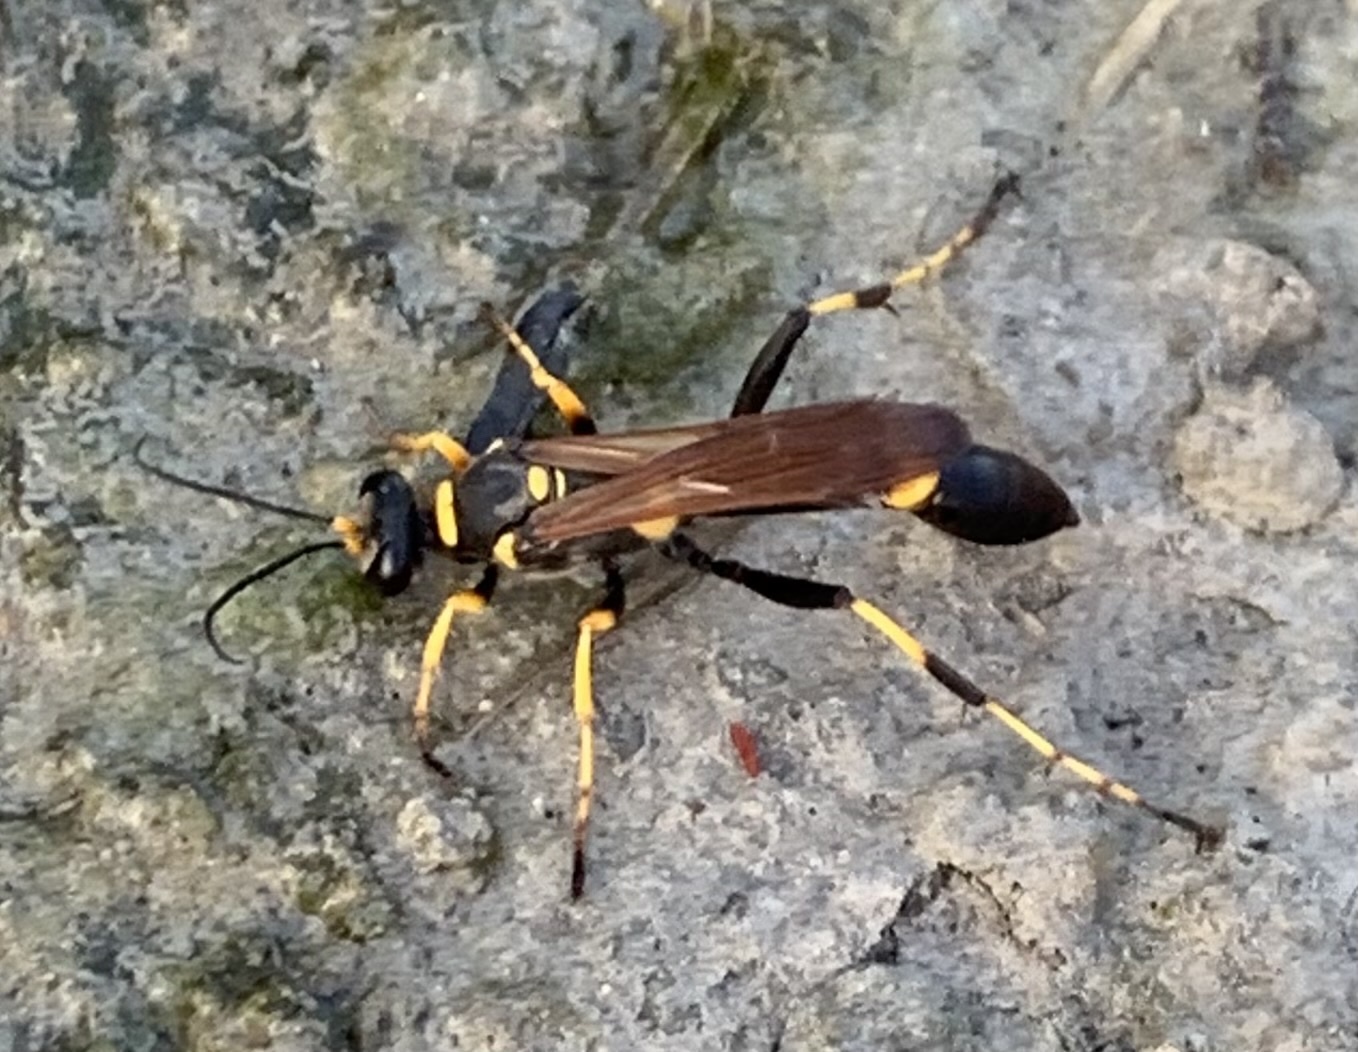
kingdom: Animalia
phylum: Arthropoda
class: Insecta
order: Hymenoptera
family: Sphecidae
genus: Sceliphron
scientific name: Sceliphron caementarium
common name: Mud dauber
